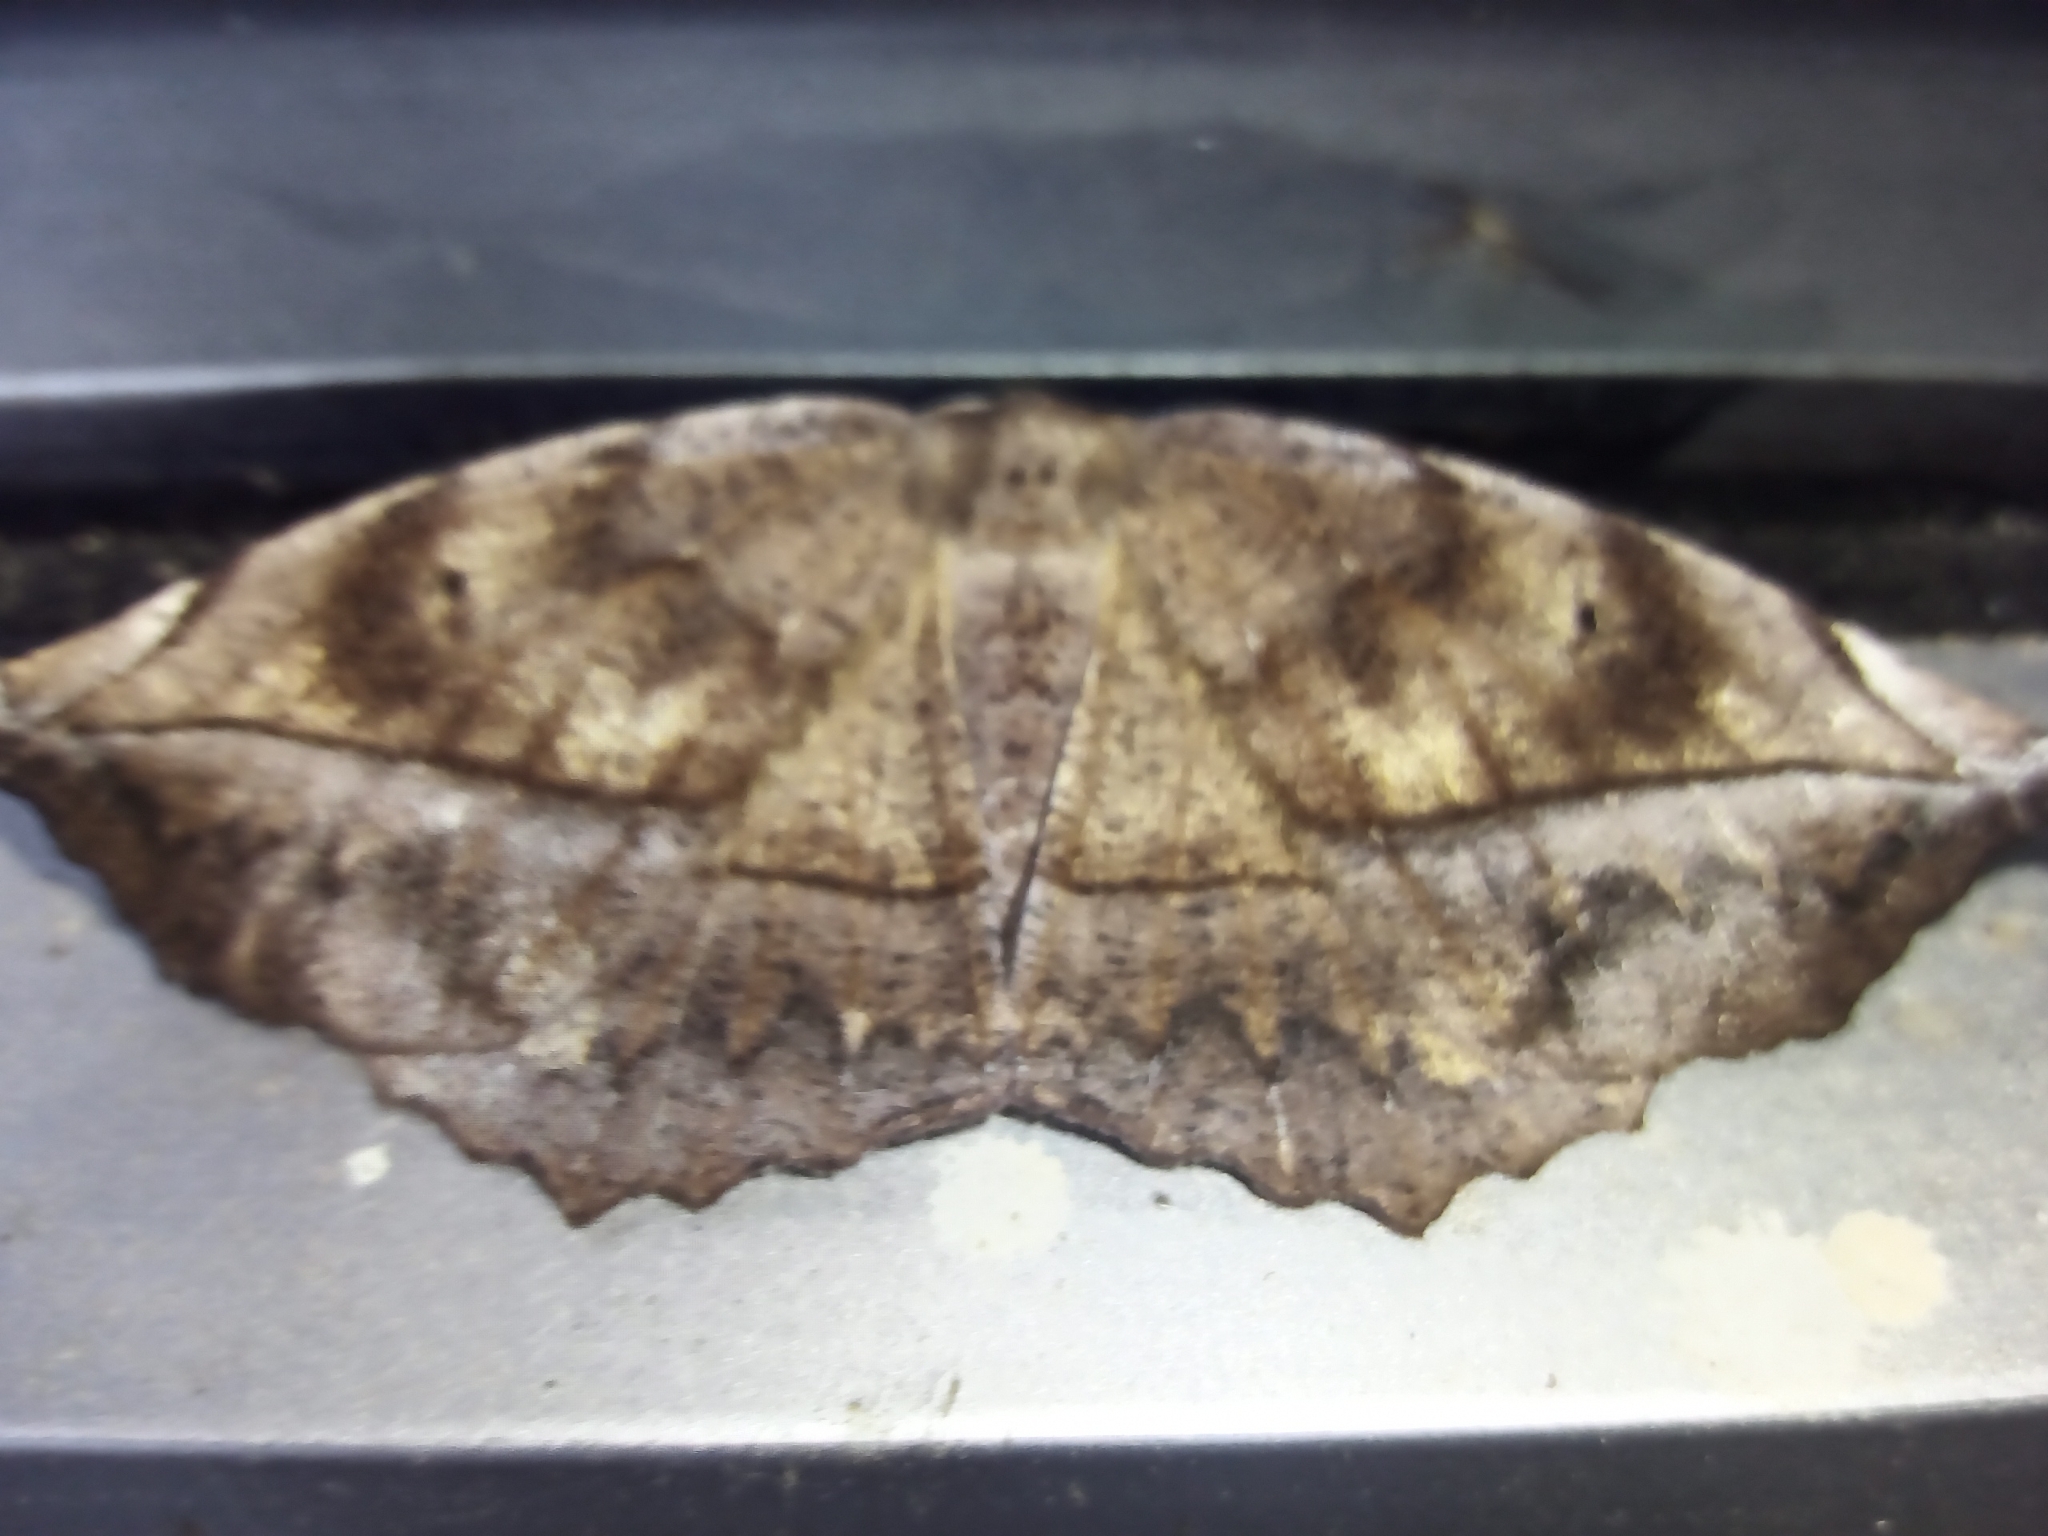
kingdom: Animalia
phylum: Arthropoda
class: Insecta
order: Lepidoptera
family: Geometridae
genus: Eutrapela
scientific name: Eutrapela clemataria
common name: Curved-toothed geometer
